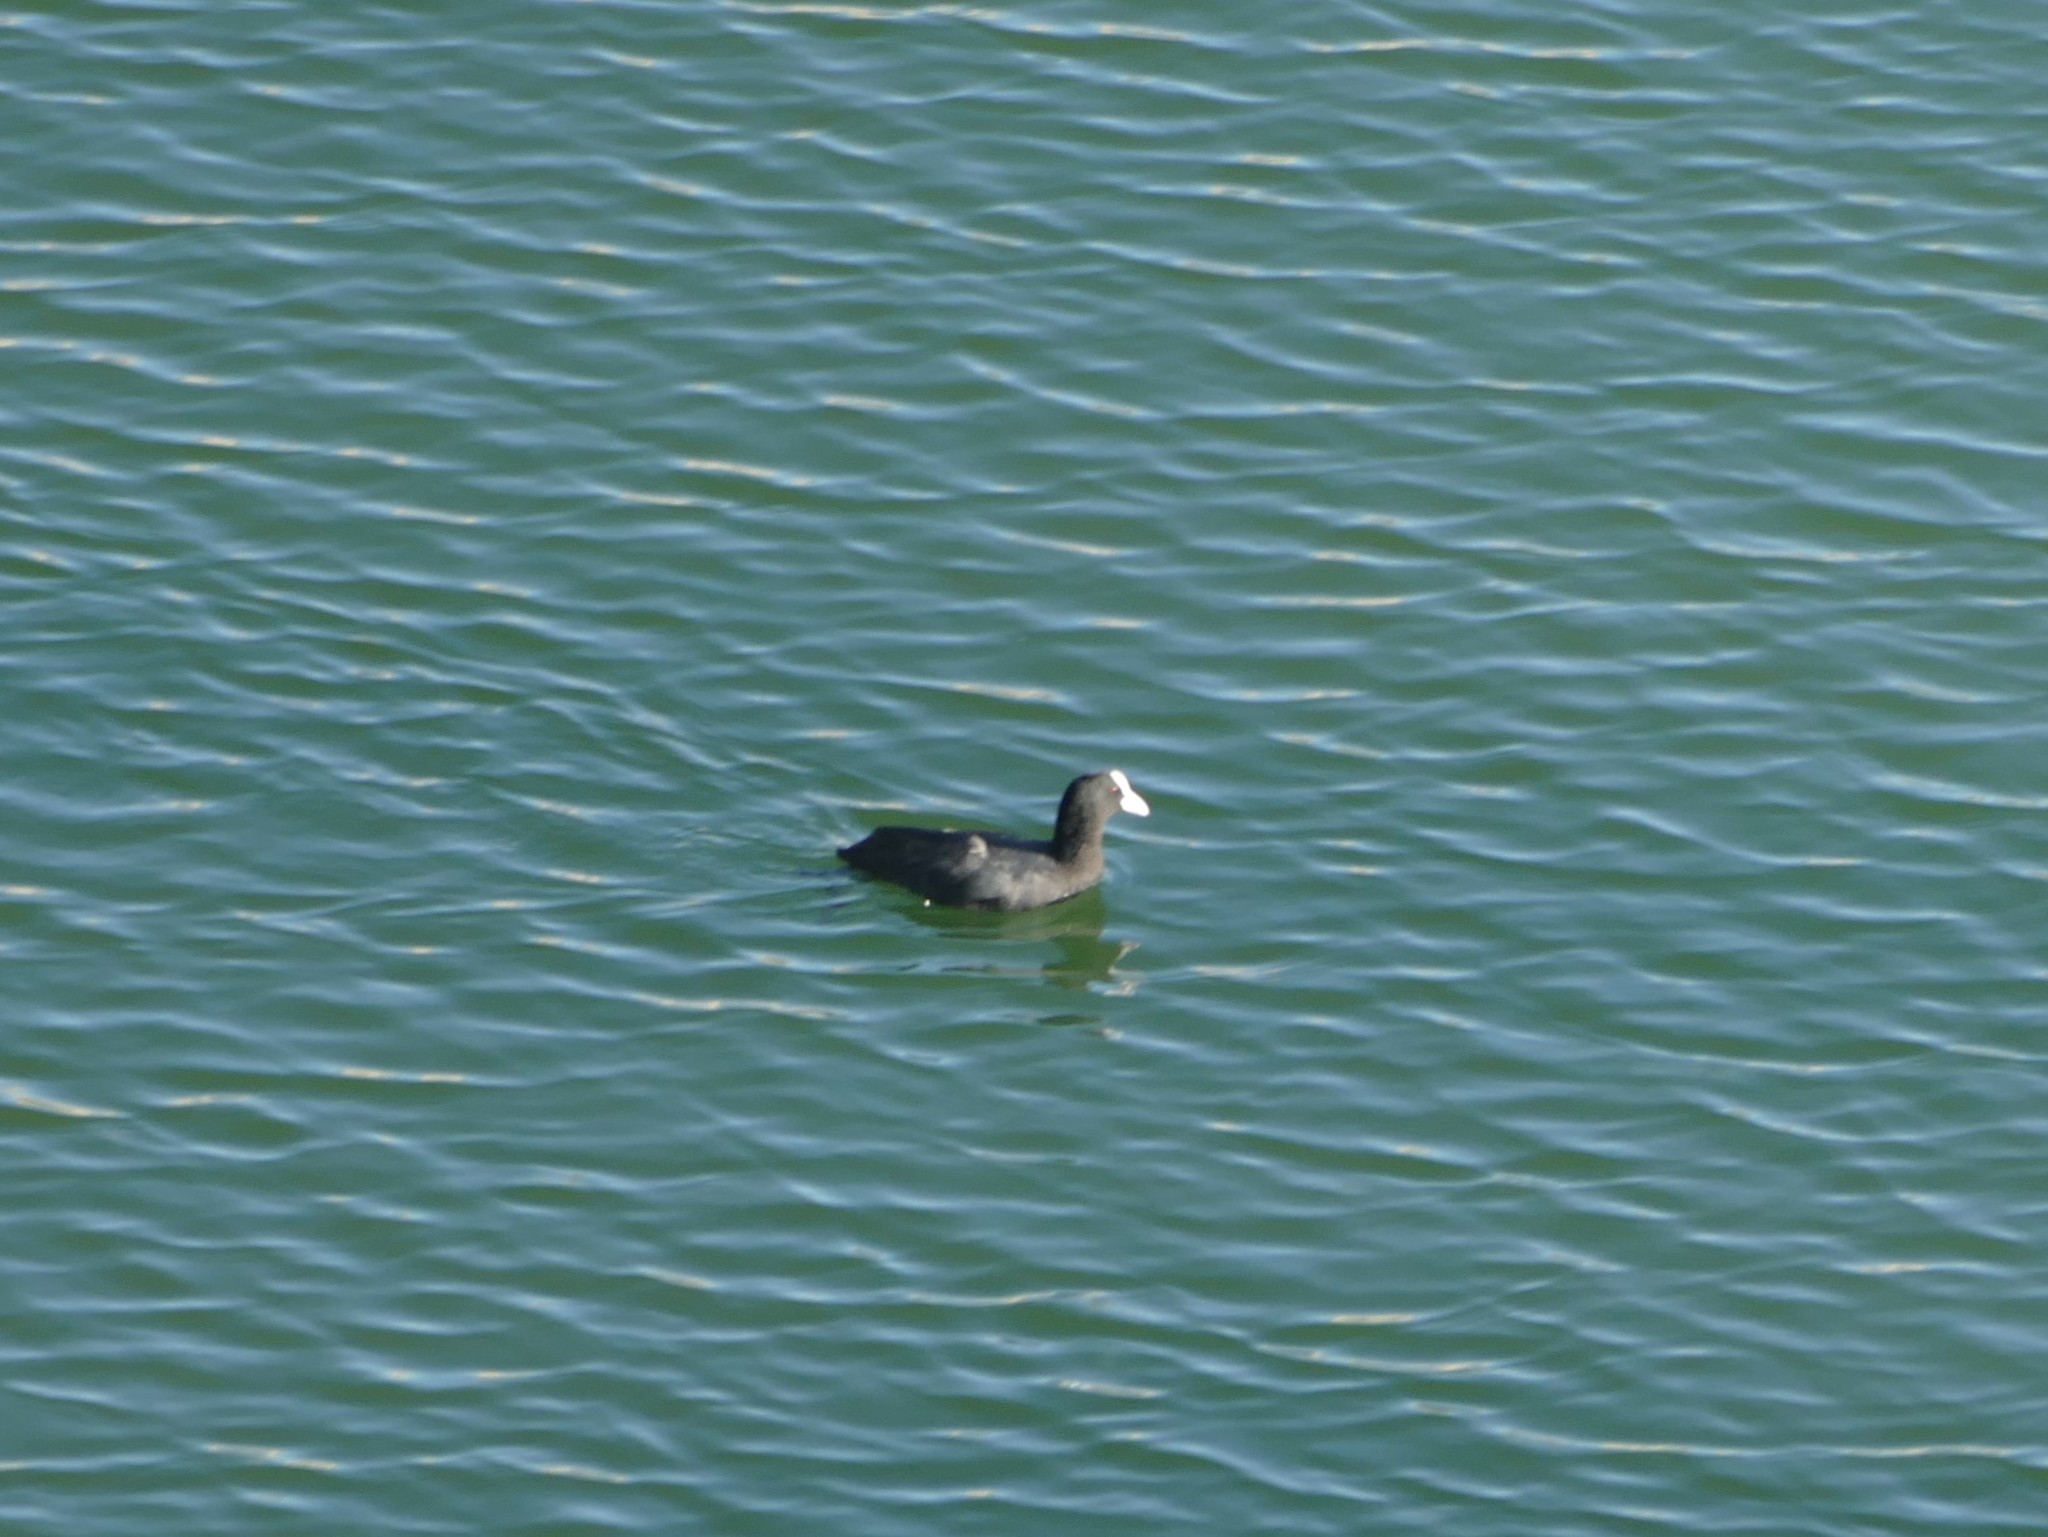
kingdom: Animalia
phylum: Chordata
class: Aves
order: Gruiformes
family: Rallidae
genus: Fulica
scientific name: Fulica atra
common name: Eurasian coot
